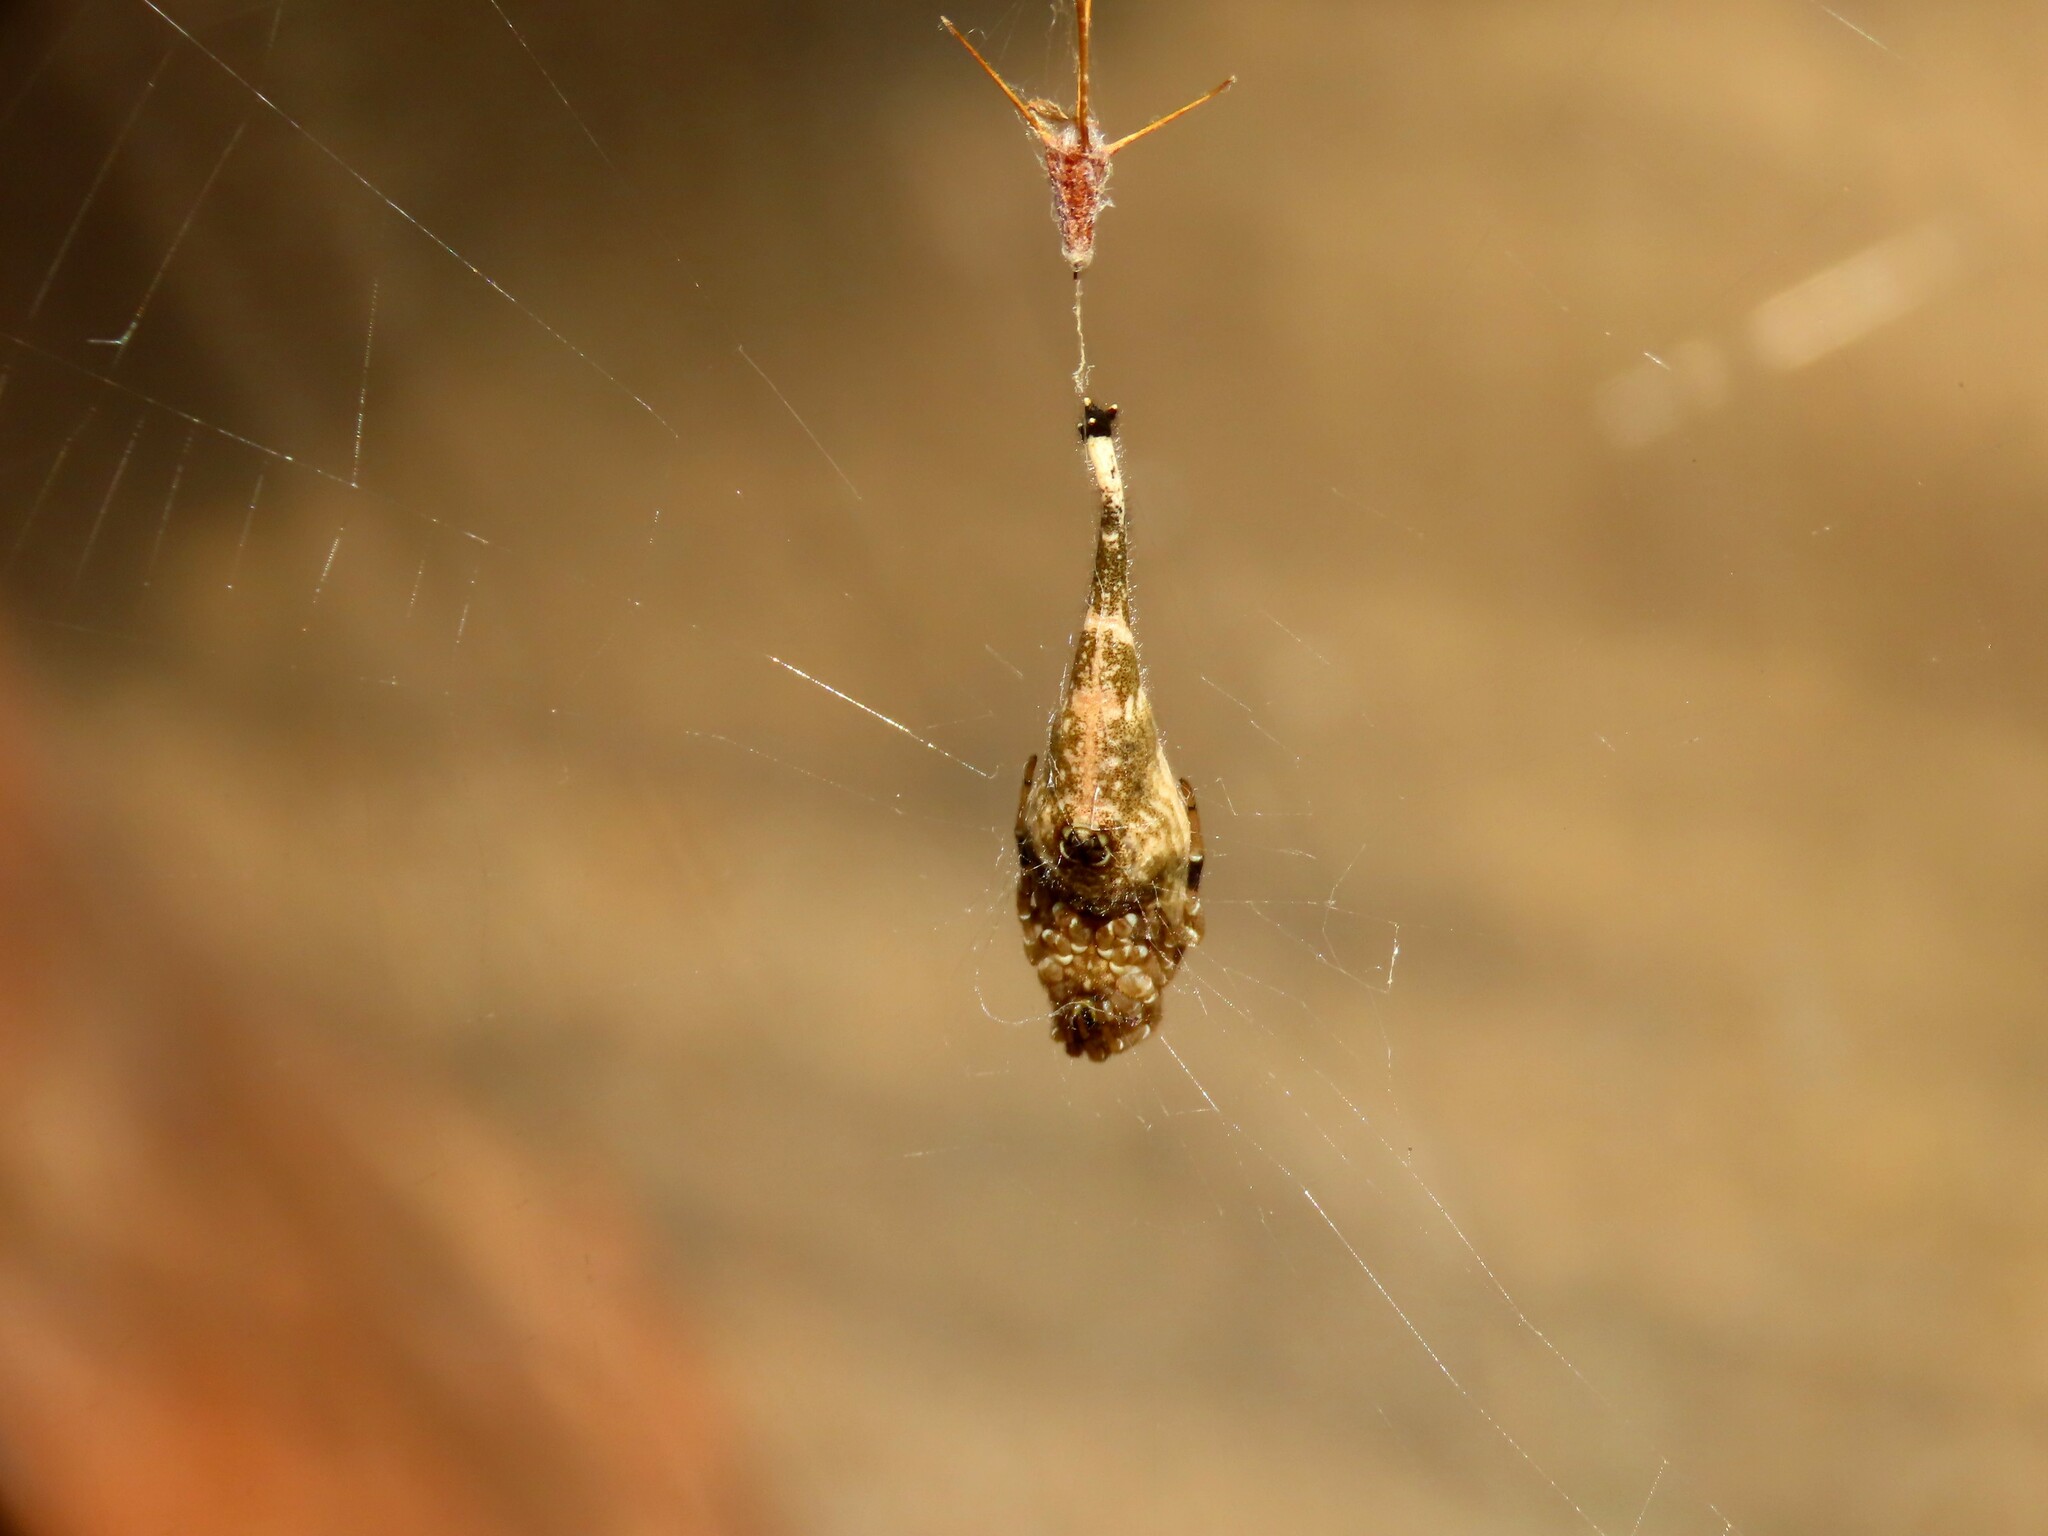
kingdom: Animalia
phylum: Arthropoda
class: Arachnida
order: Araneae
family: Araneidae
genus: Arachnura
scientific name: Arachnura higginsi
